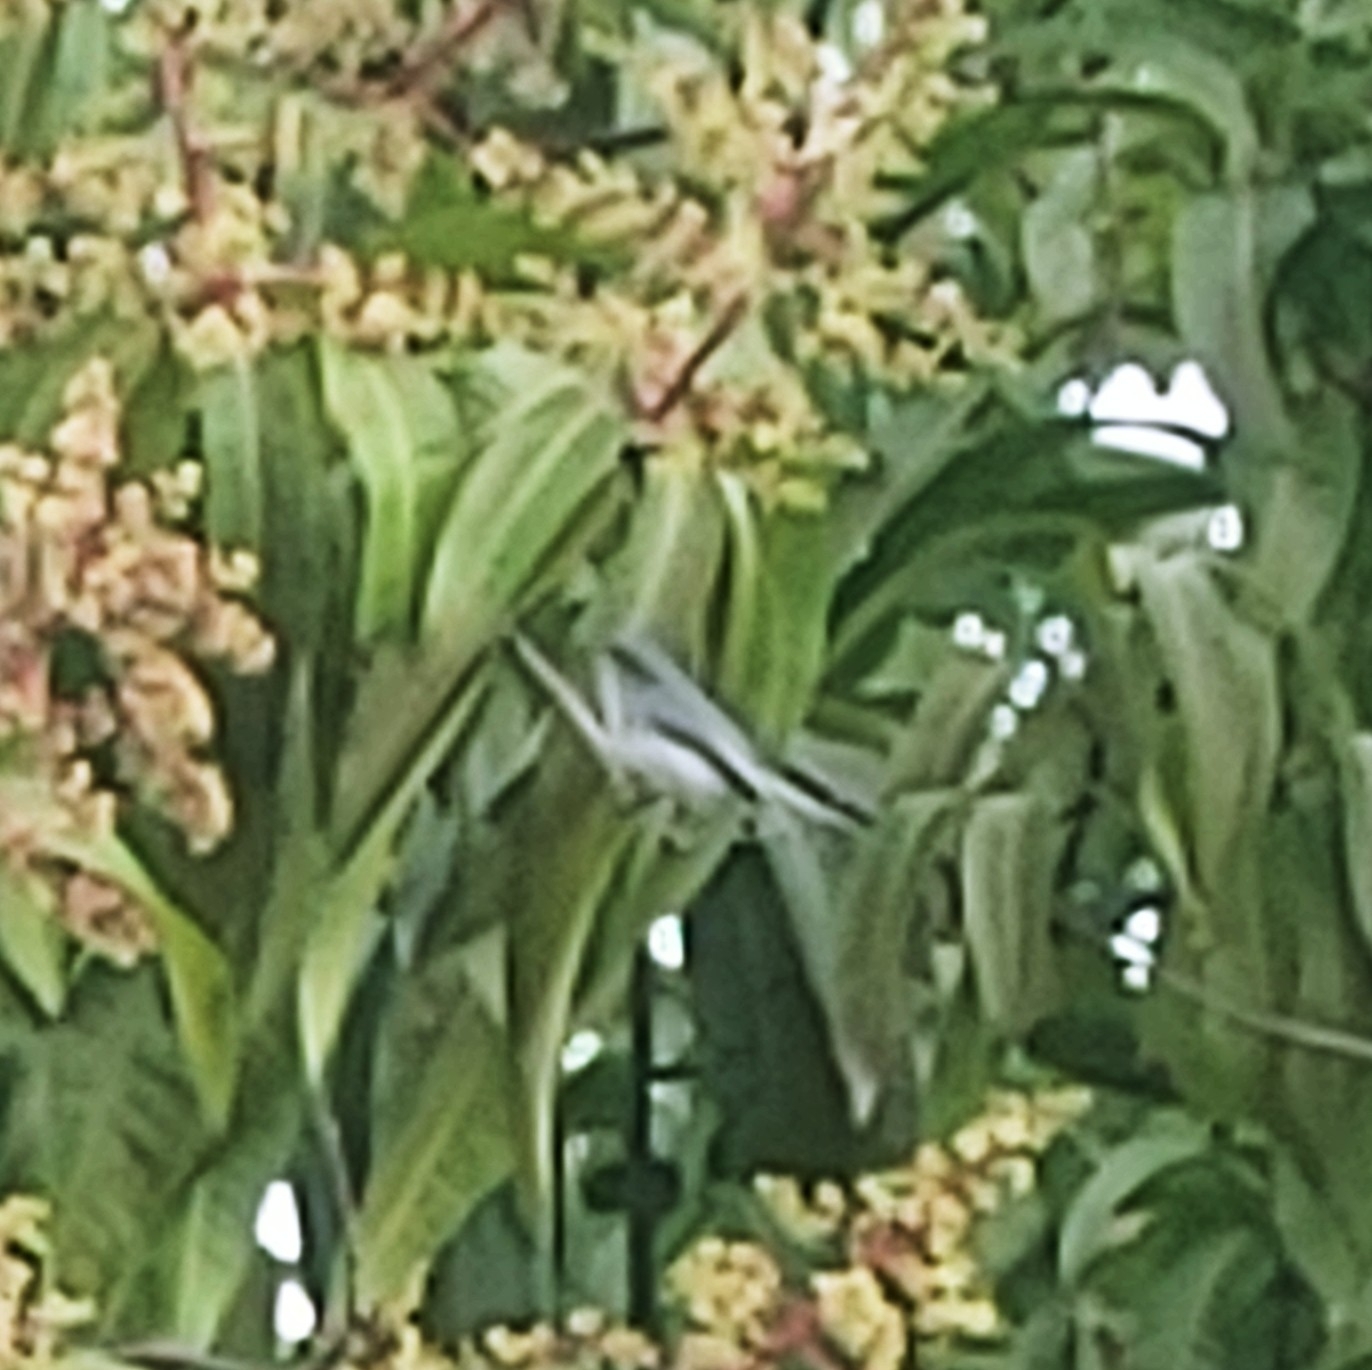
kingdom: Animalia
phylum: Chordata
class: Aves
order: Passeriformes
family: Polioptilidae
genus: Polioptila
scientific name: Polioptila caerulea
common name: Blue-gray gnatcatcher
